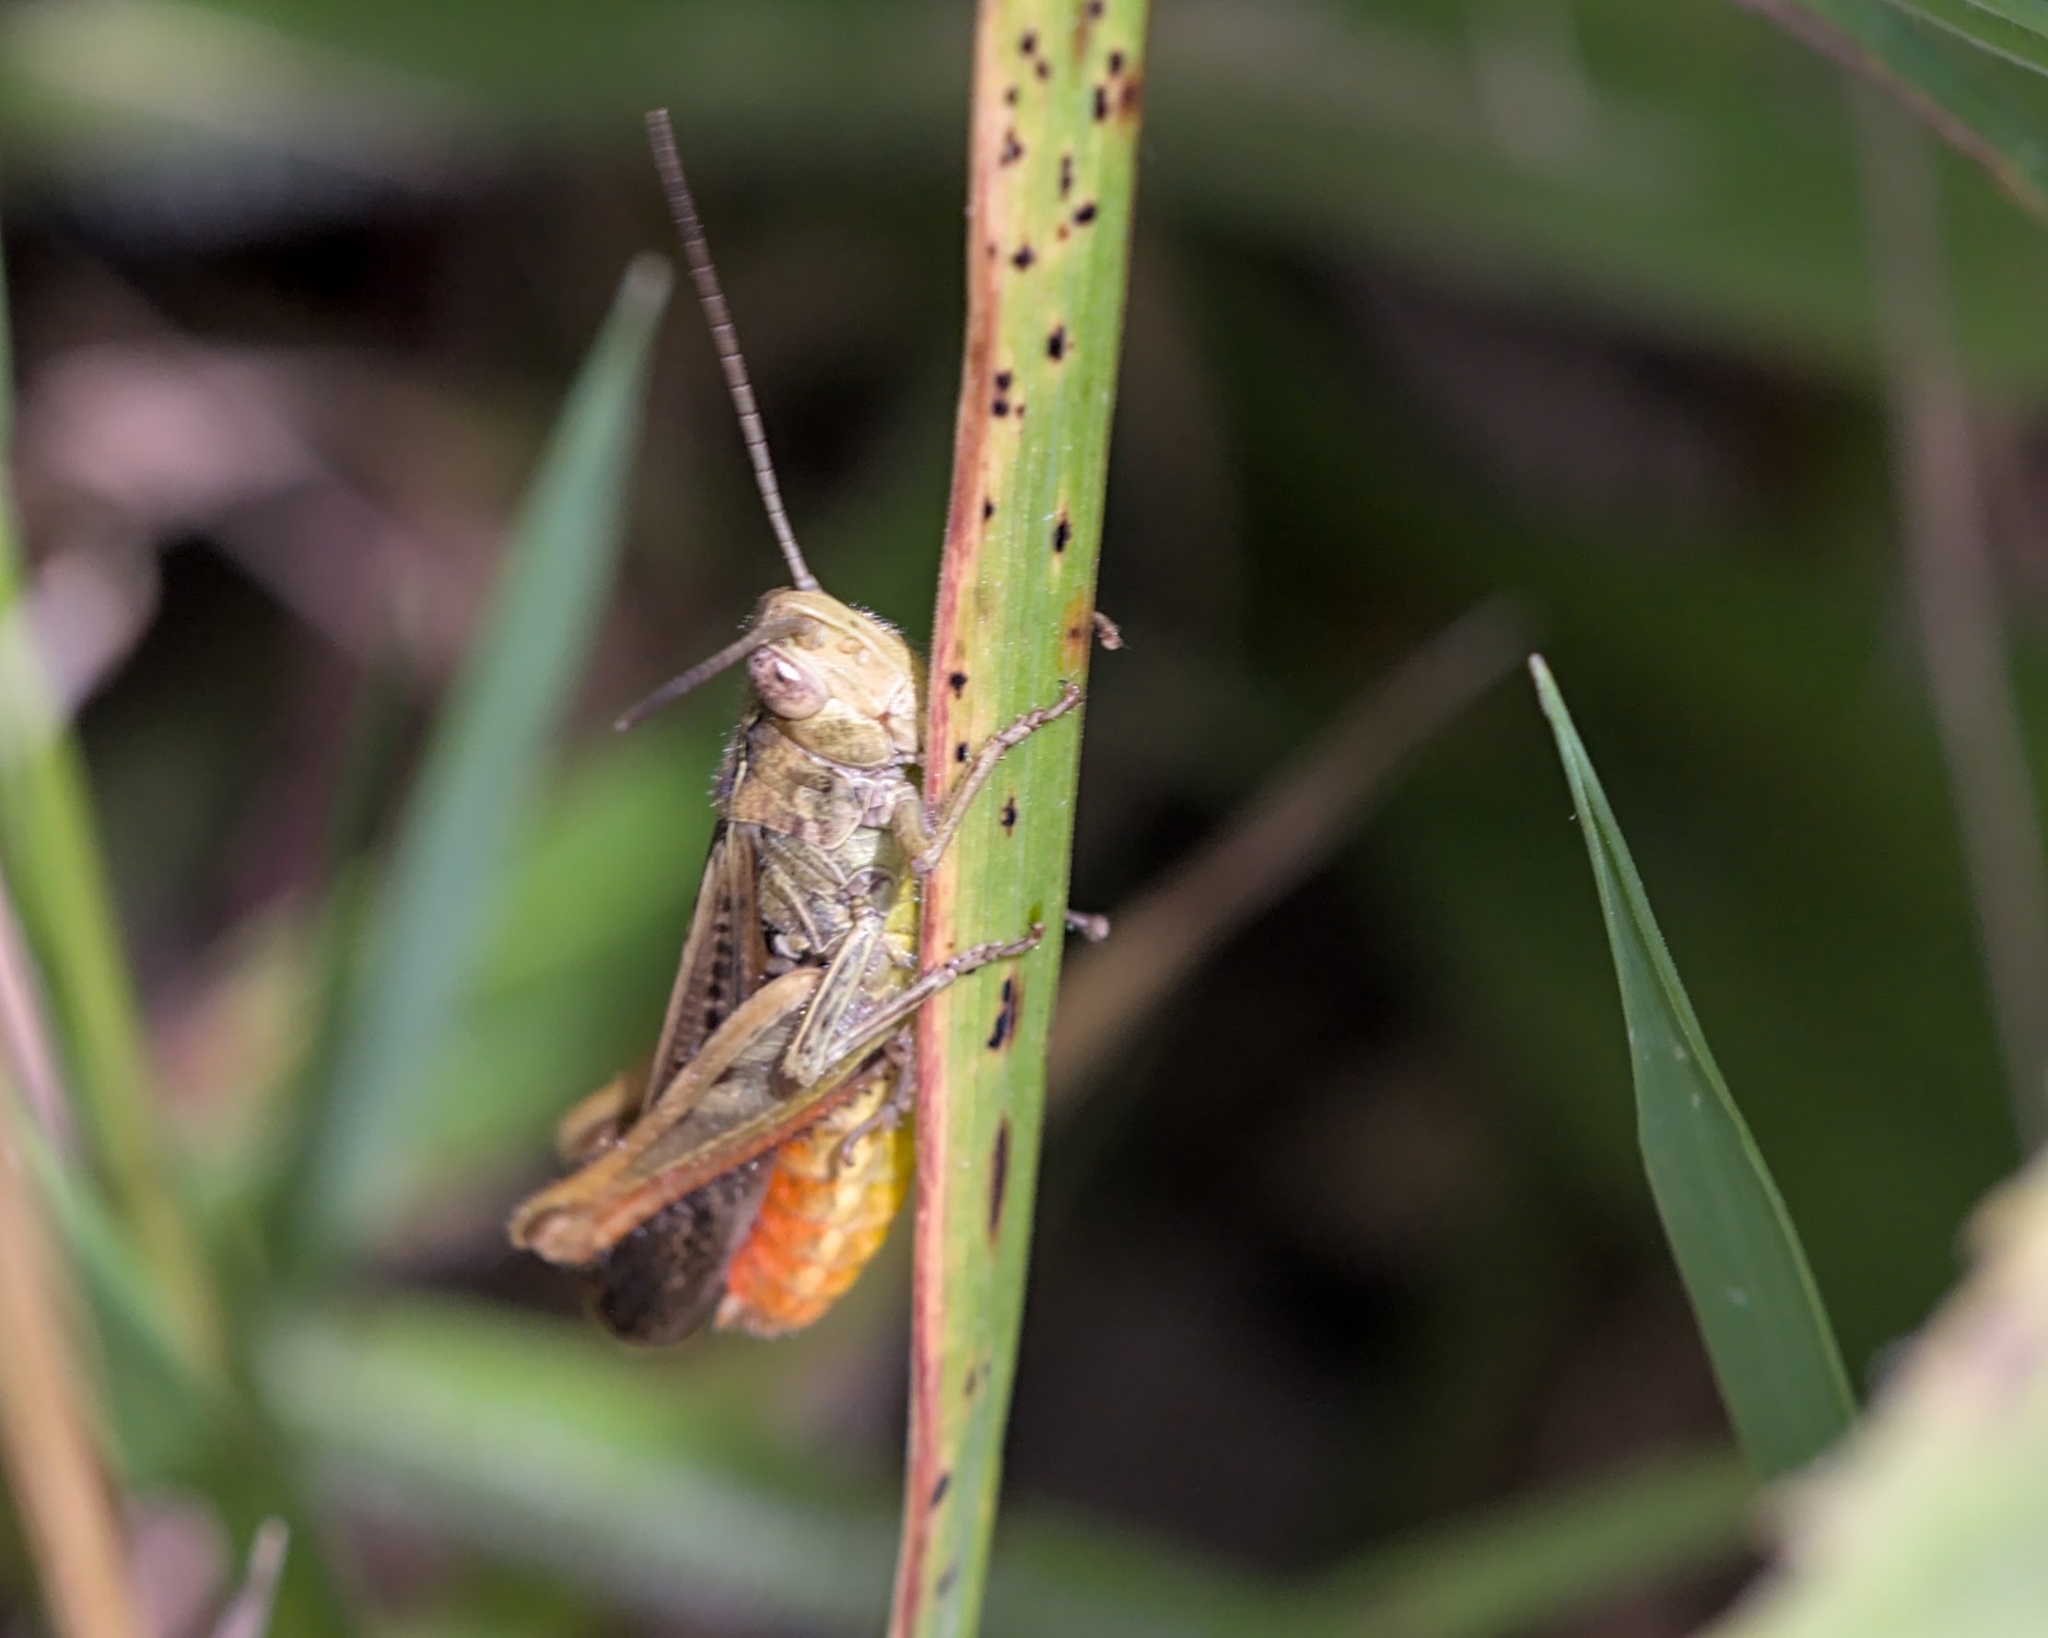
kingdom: Animalia
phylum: Arthropoda
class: Insecta
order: Orthoptera
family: Acrididae
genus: Chorthippus
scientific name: Chorthippus brunneus
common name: Field grasshopper
